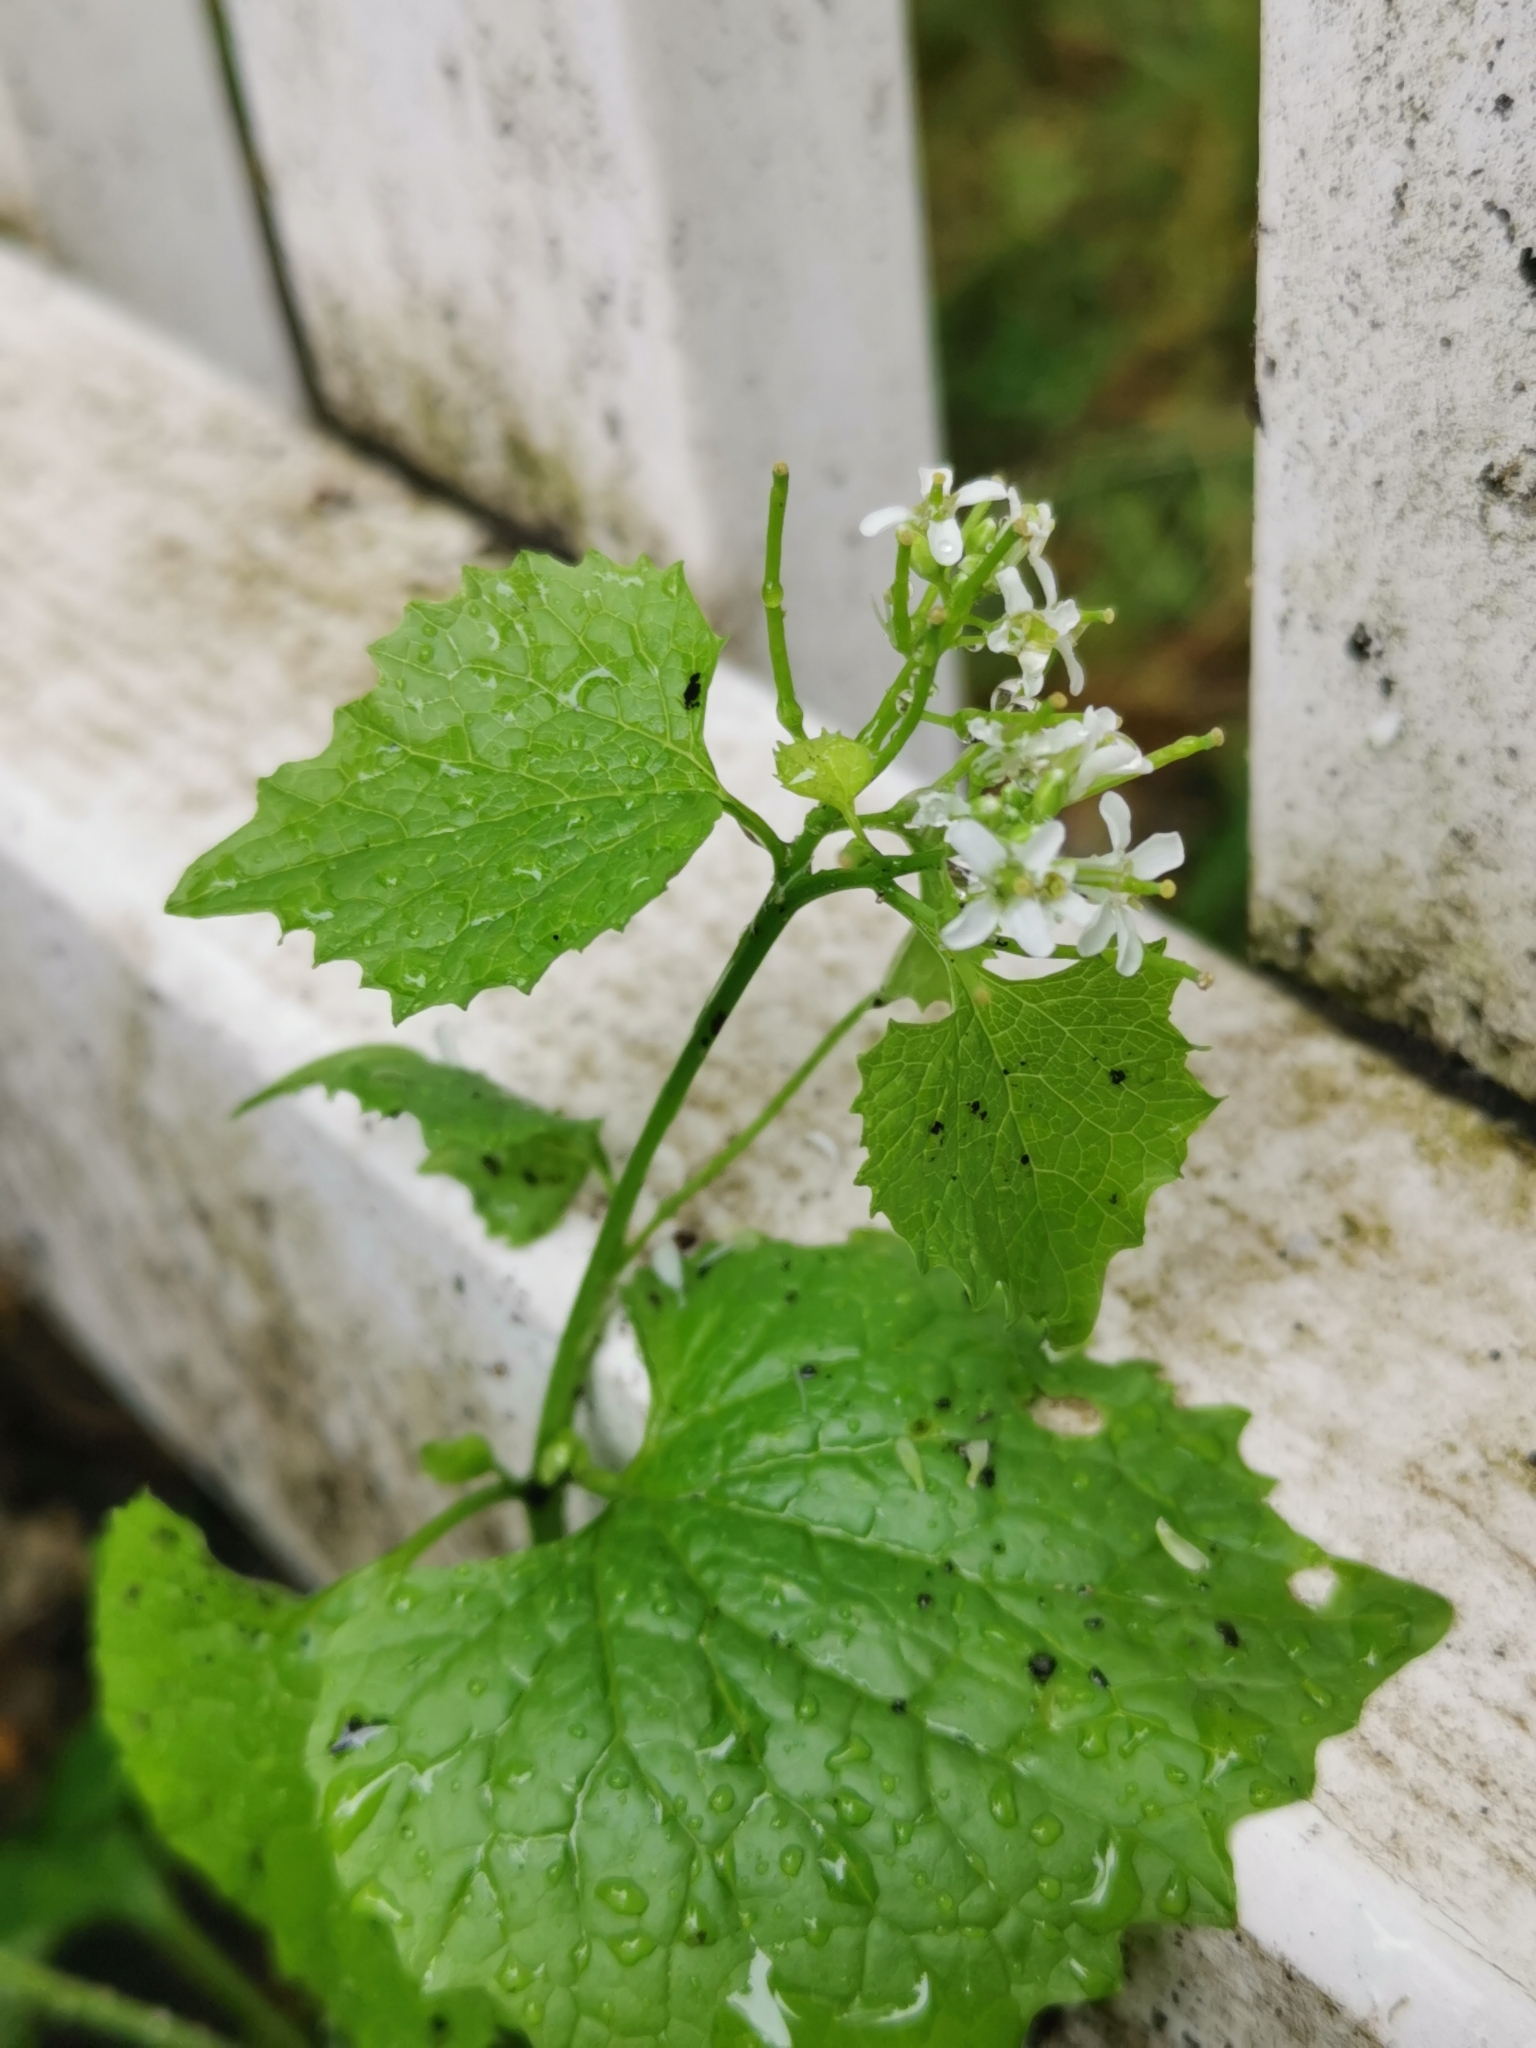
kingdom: Plantae
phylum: Tracheophyta
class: Magnoliopsida
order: Brassicales
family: Brassicaceae
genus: Alliaria
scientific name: Alliaria petiolata
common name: Garlic mustard
